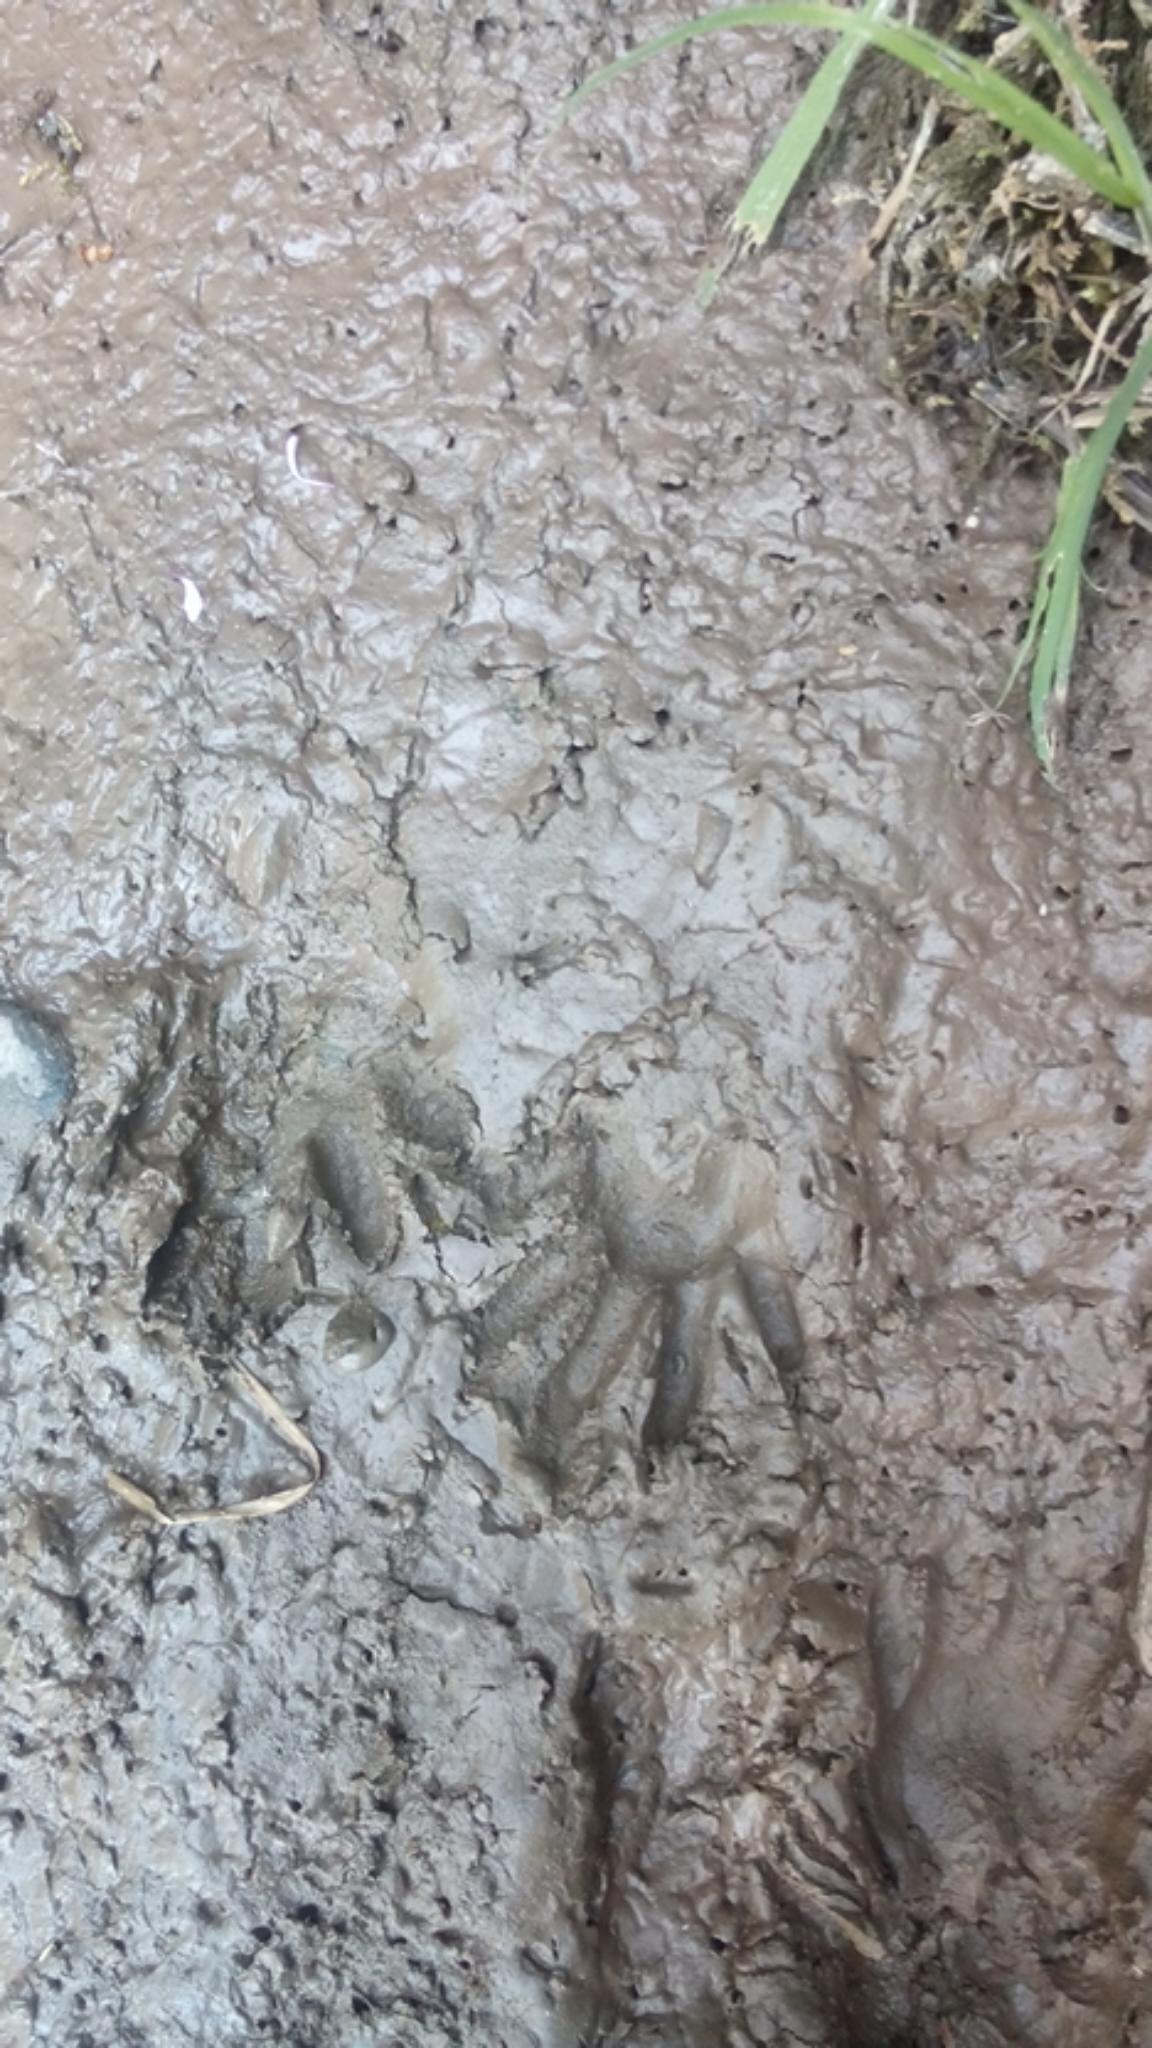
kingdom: Animalia
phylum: Chordata
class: Mammalia
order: Carnivora
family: Procyonidae
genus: Procyon
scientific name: Procyon lotor
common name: Raccoon
